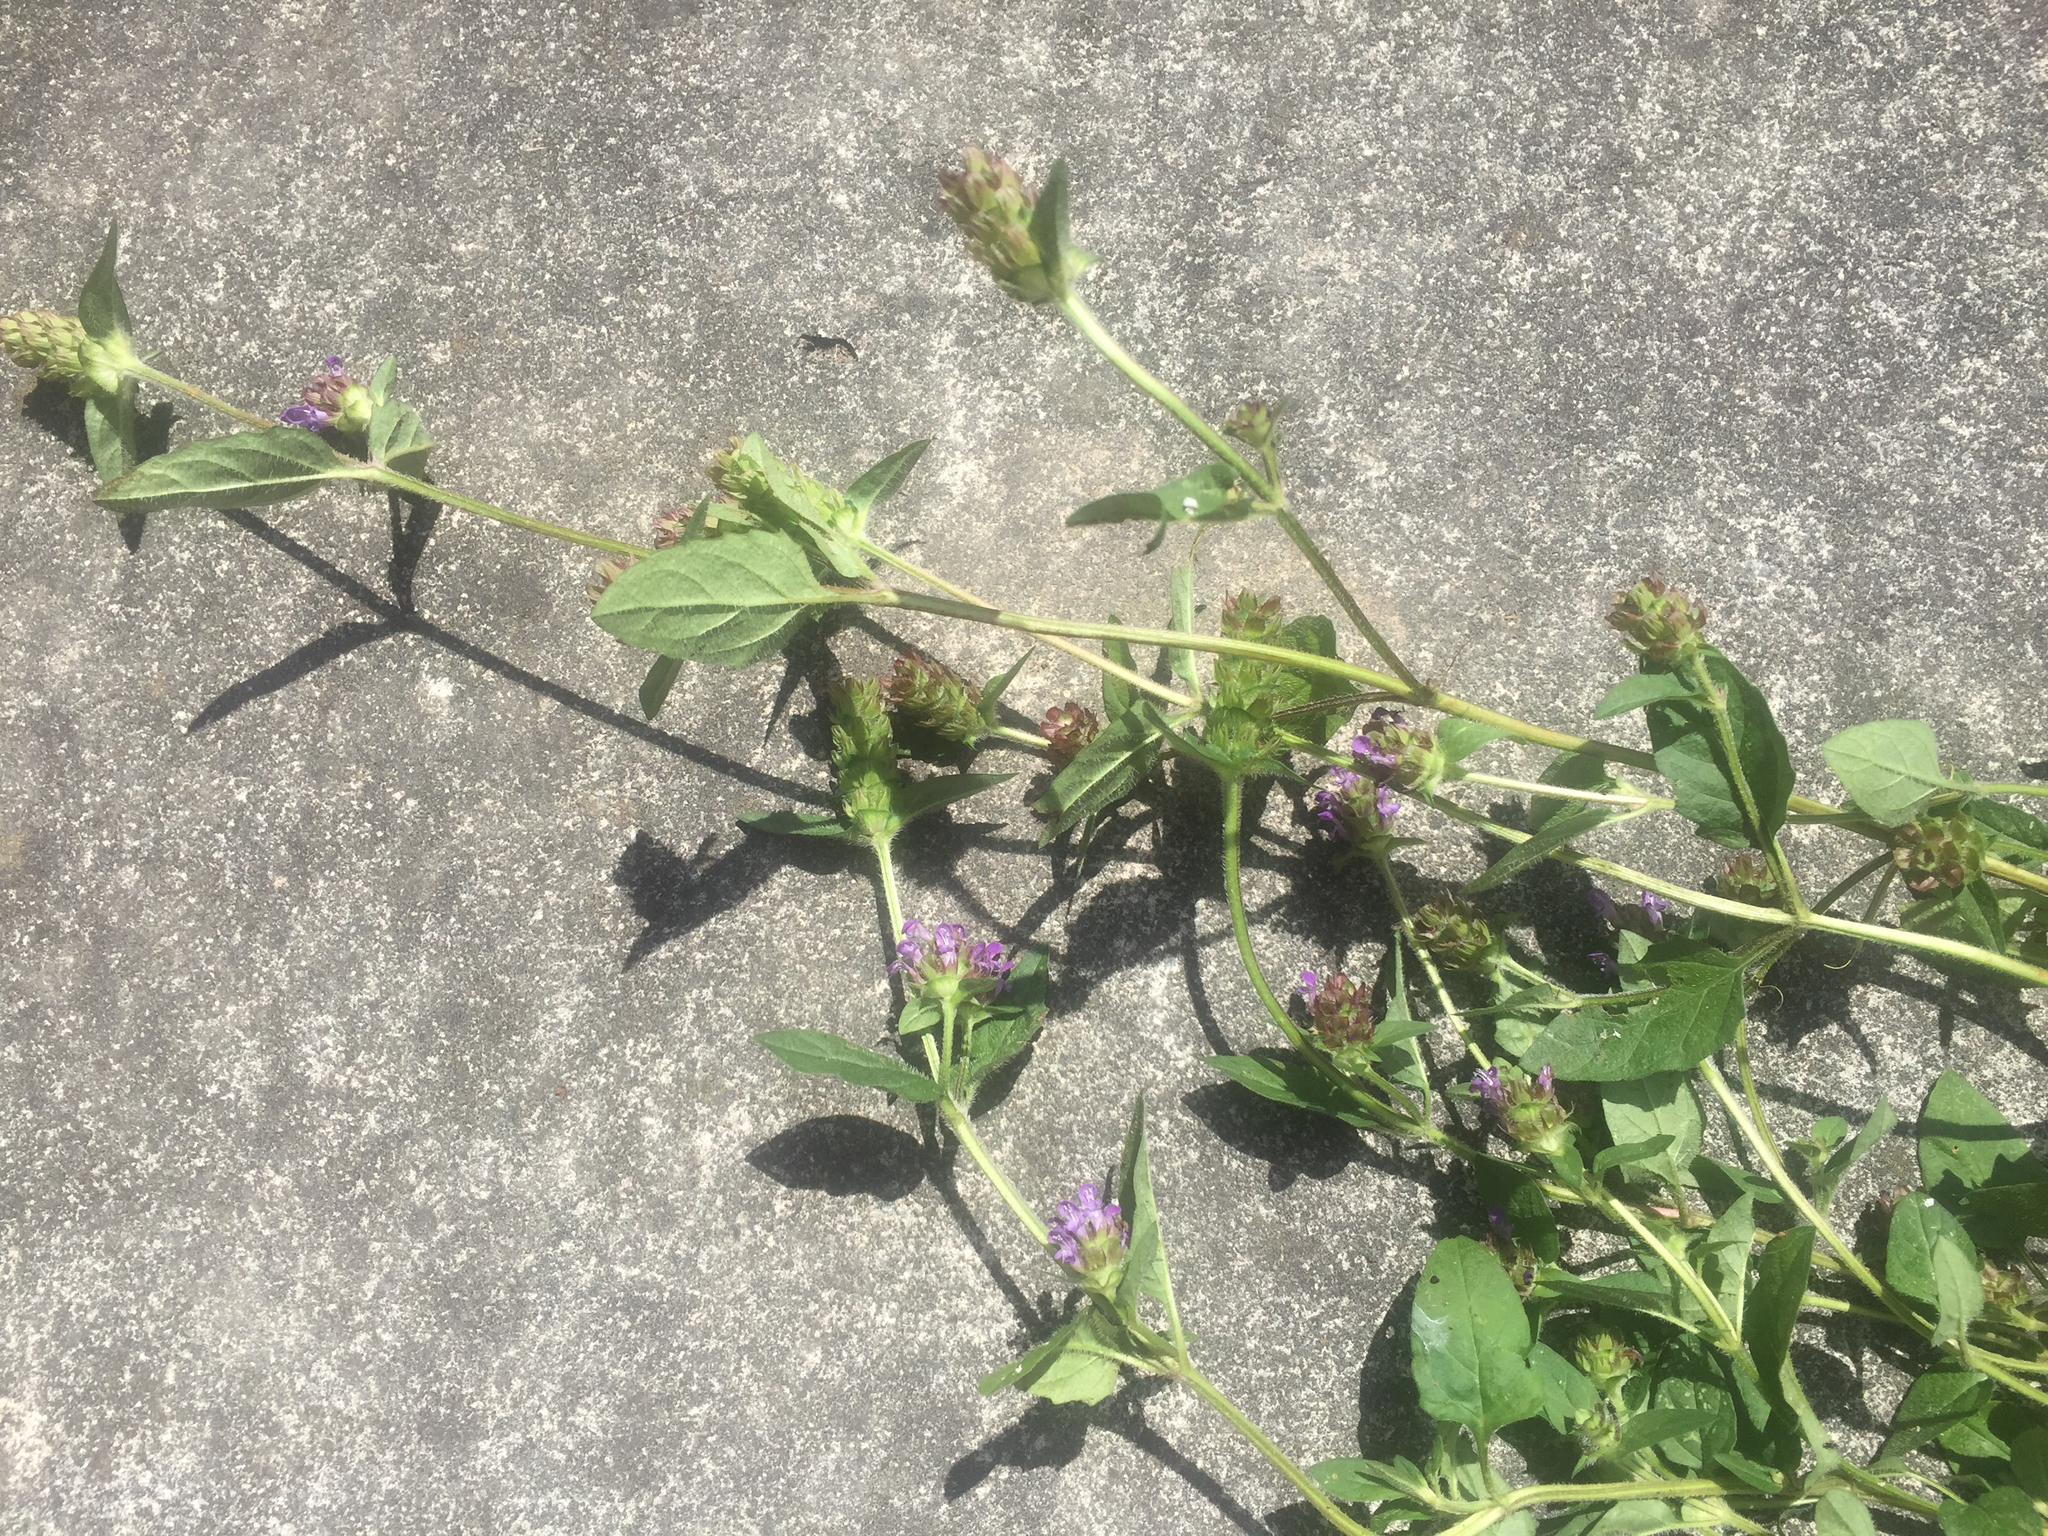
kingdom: Plantae
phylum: Tracheophyta
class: Magnoliopsida
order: Lamiales
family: Lamiaceae
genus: Prunella
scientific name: Prunella vulgaris
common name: Heal-all
